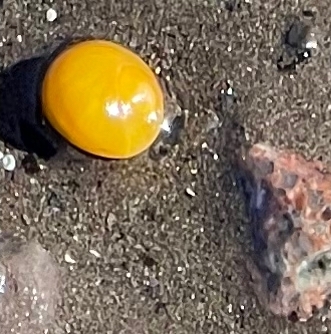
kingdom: Animalia
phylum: Mollusca
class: Gastropoda
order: Littorinimorpha
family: Littorinidae
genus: Littorina
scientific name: Littorina obtusata
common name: Flat periwinkle
